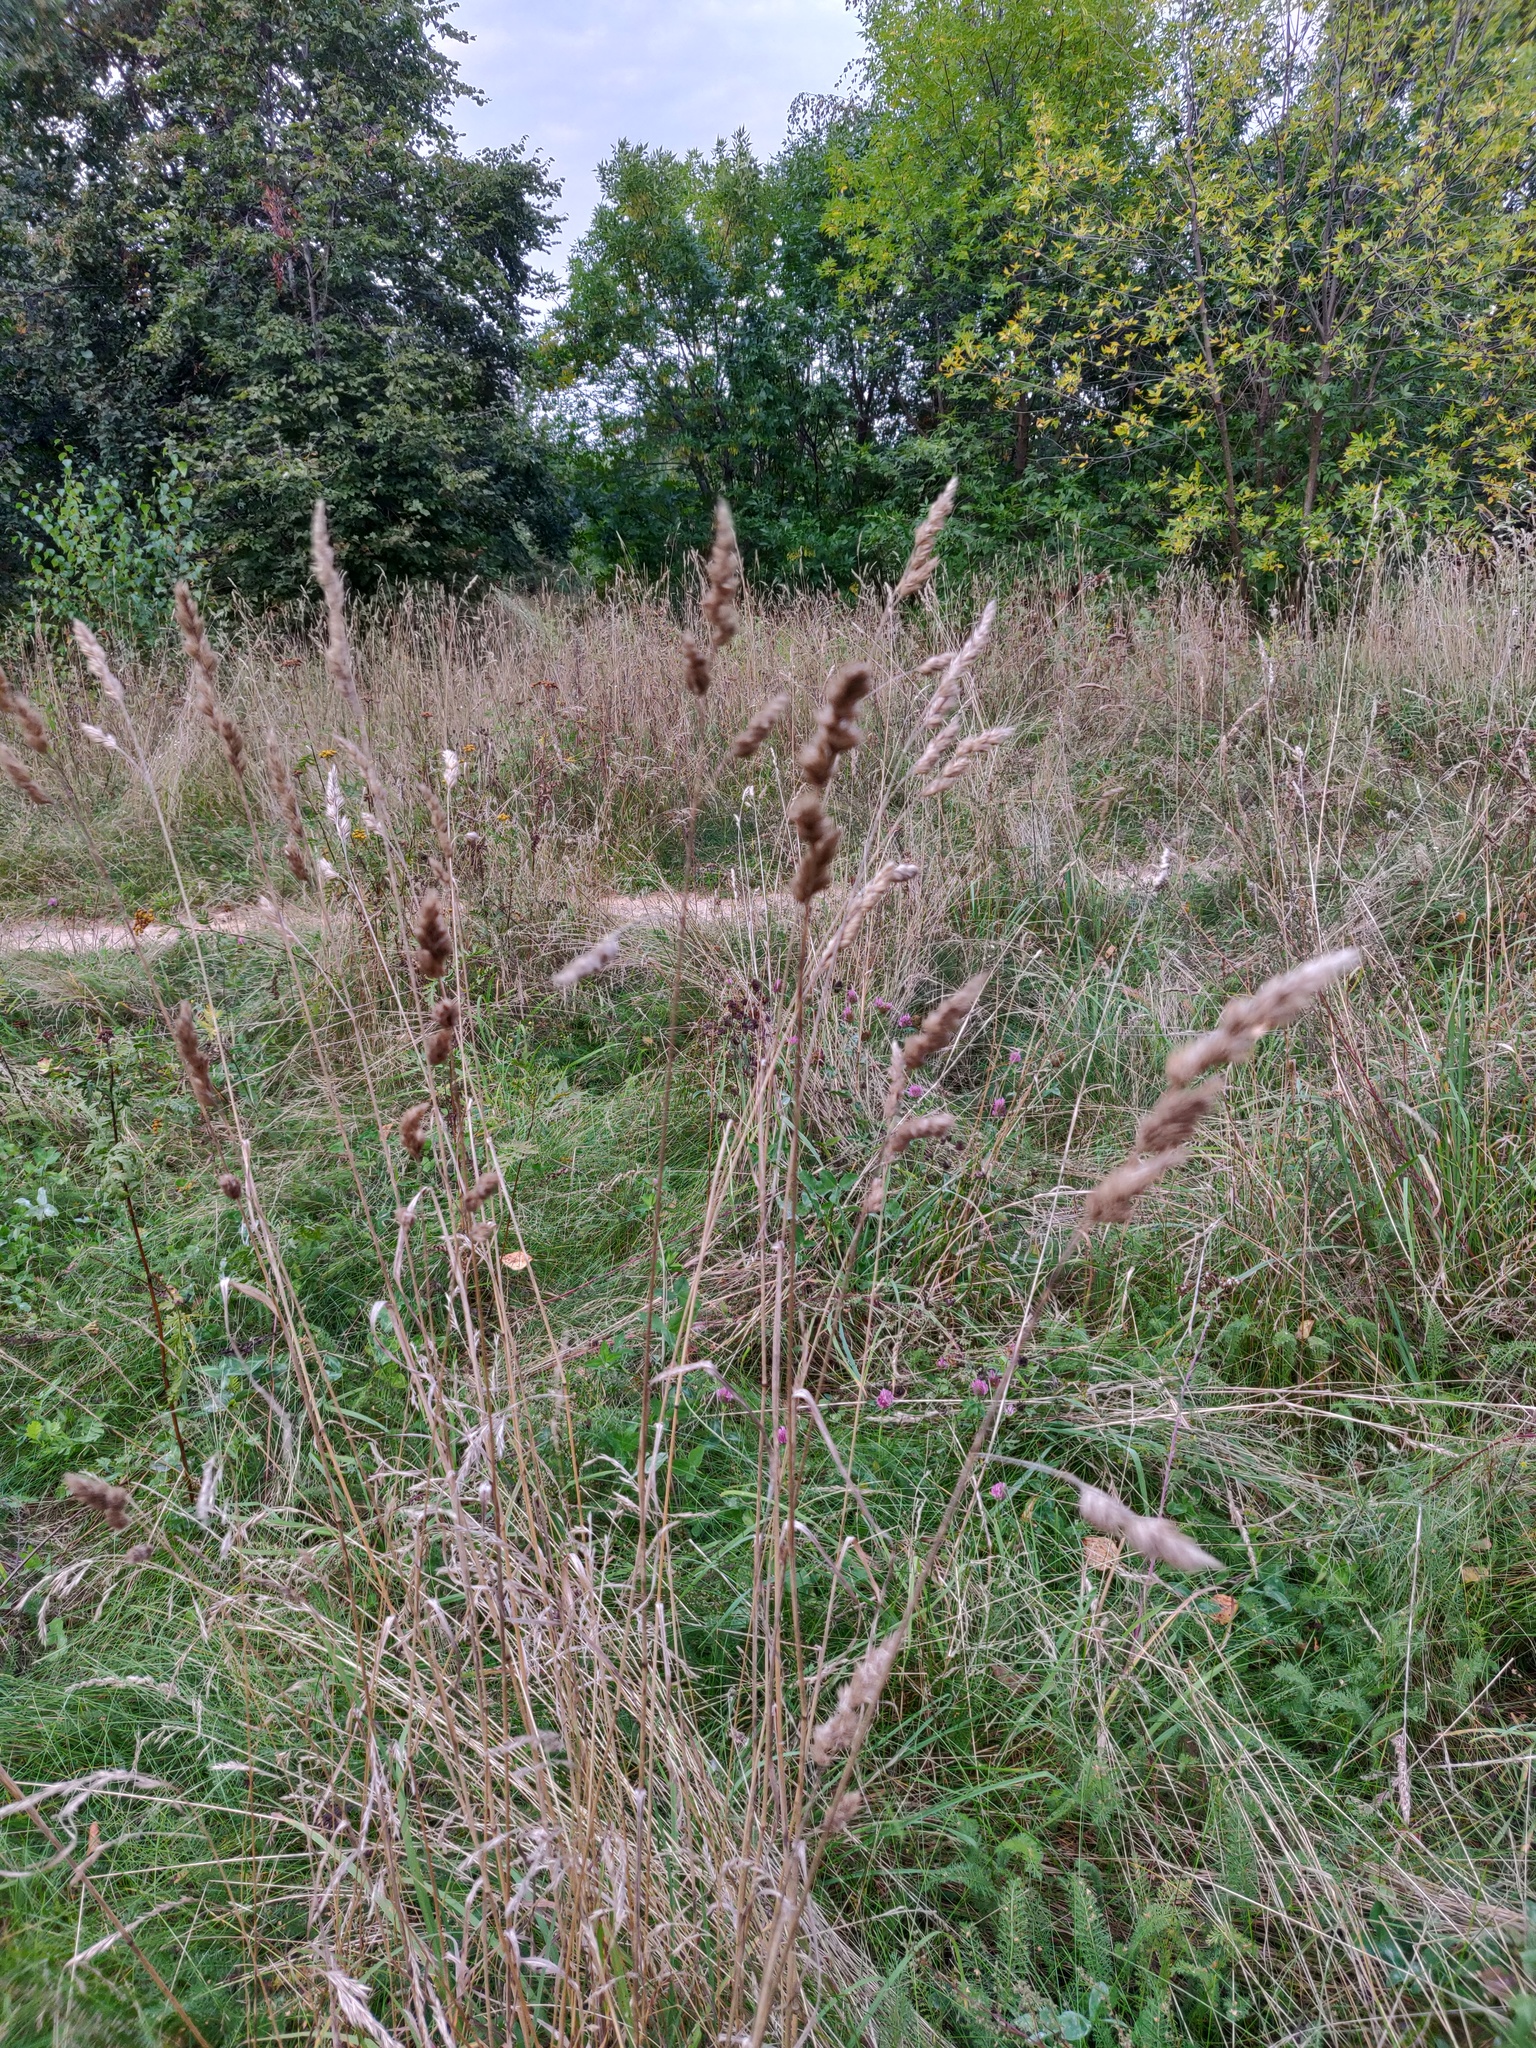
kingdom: Plantae
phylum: Tracheophyta
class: Liliopsida
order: Poales
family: Poaceae
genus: Dactylis
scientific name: Dactylis glomerata
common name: Orchardgrass
